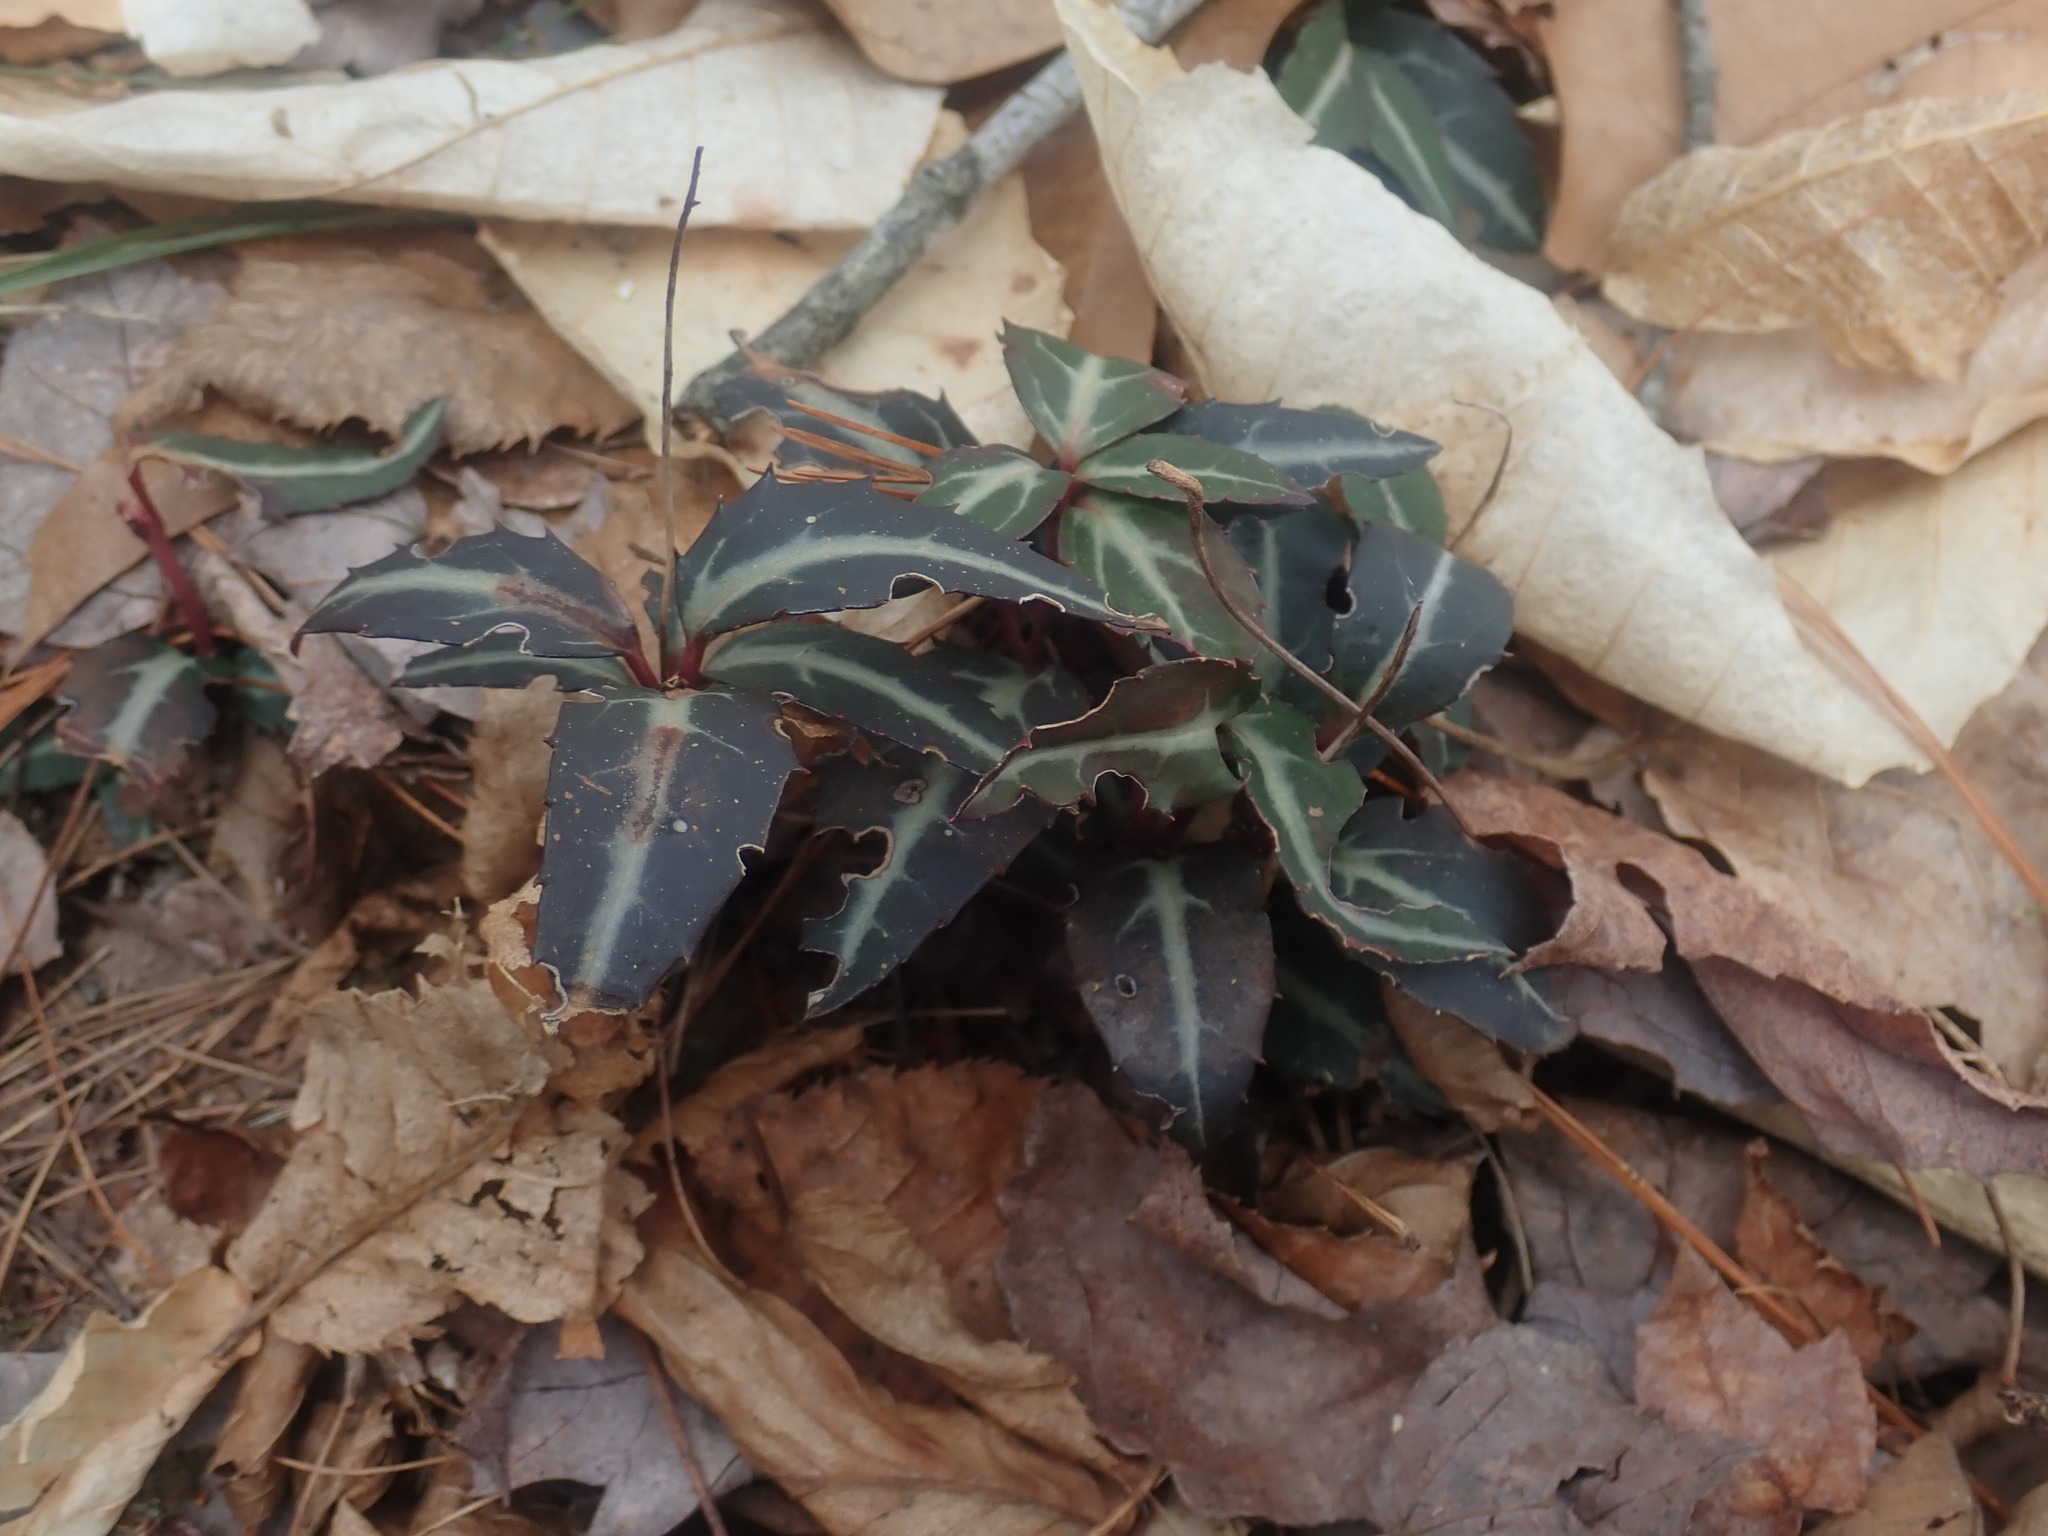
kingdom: Plantae
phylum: Tracheophyta
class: Magnoliopsida
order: Ericales
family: Ericaceae
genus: Chimaphila
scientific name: Chimaphila maculata
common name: Spotted pipsissewa
